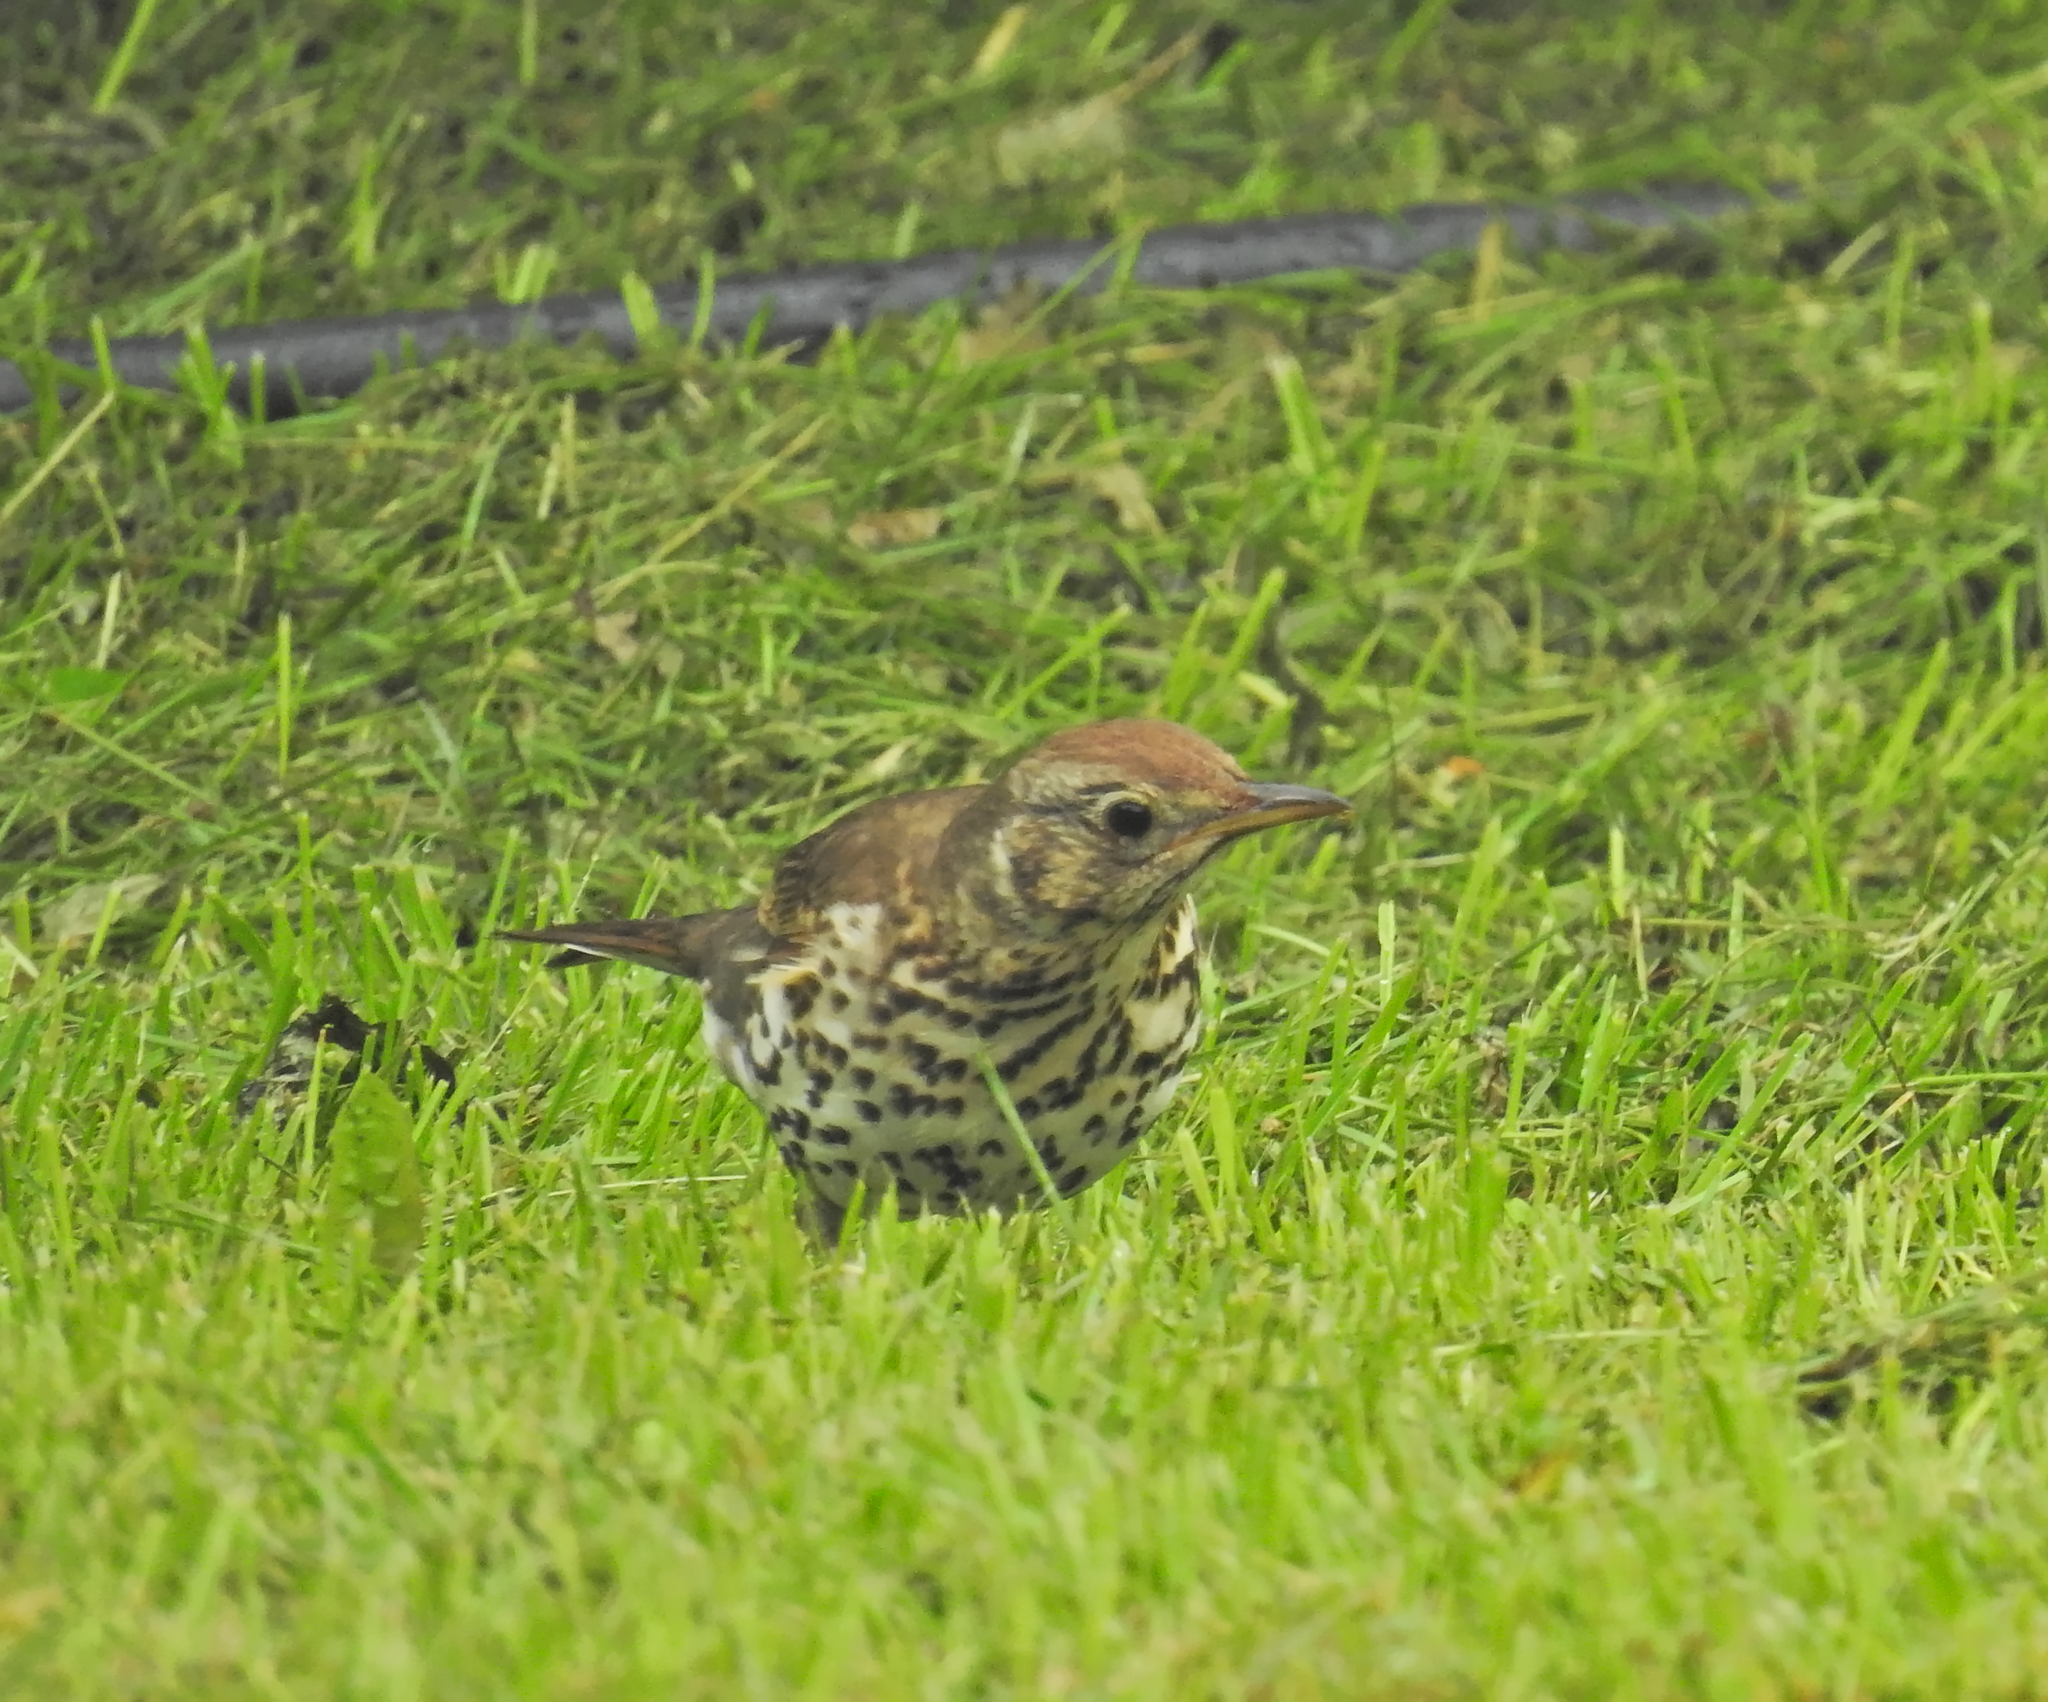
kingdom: Animalia
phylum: Chordata
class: Aves
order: Passeriformes
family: Turdidae
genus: Turdus
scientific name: Turdus philomelos
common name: Song thrush
